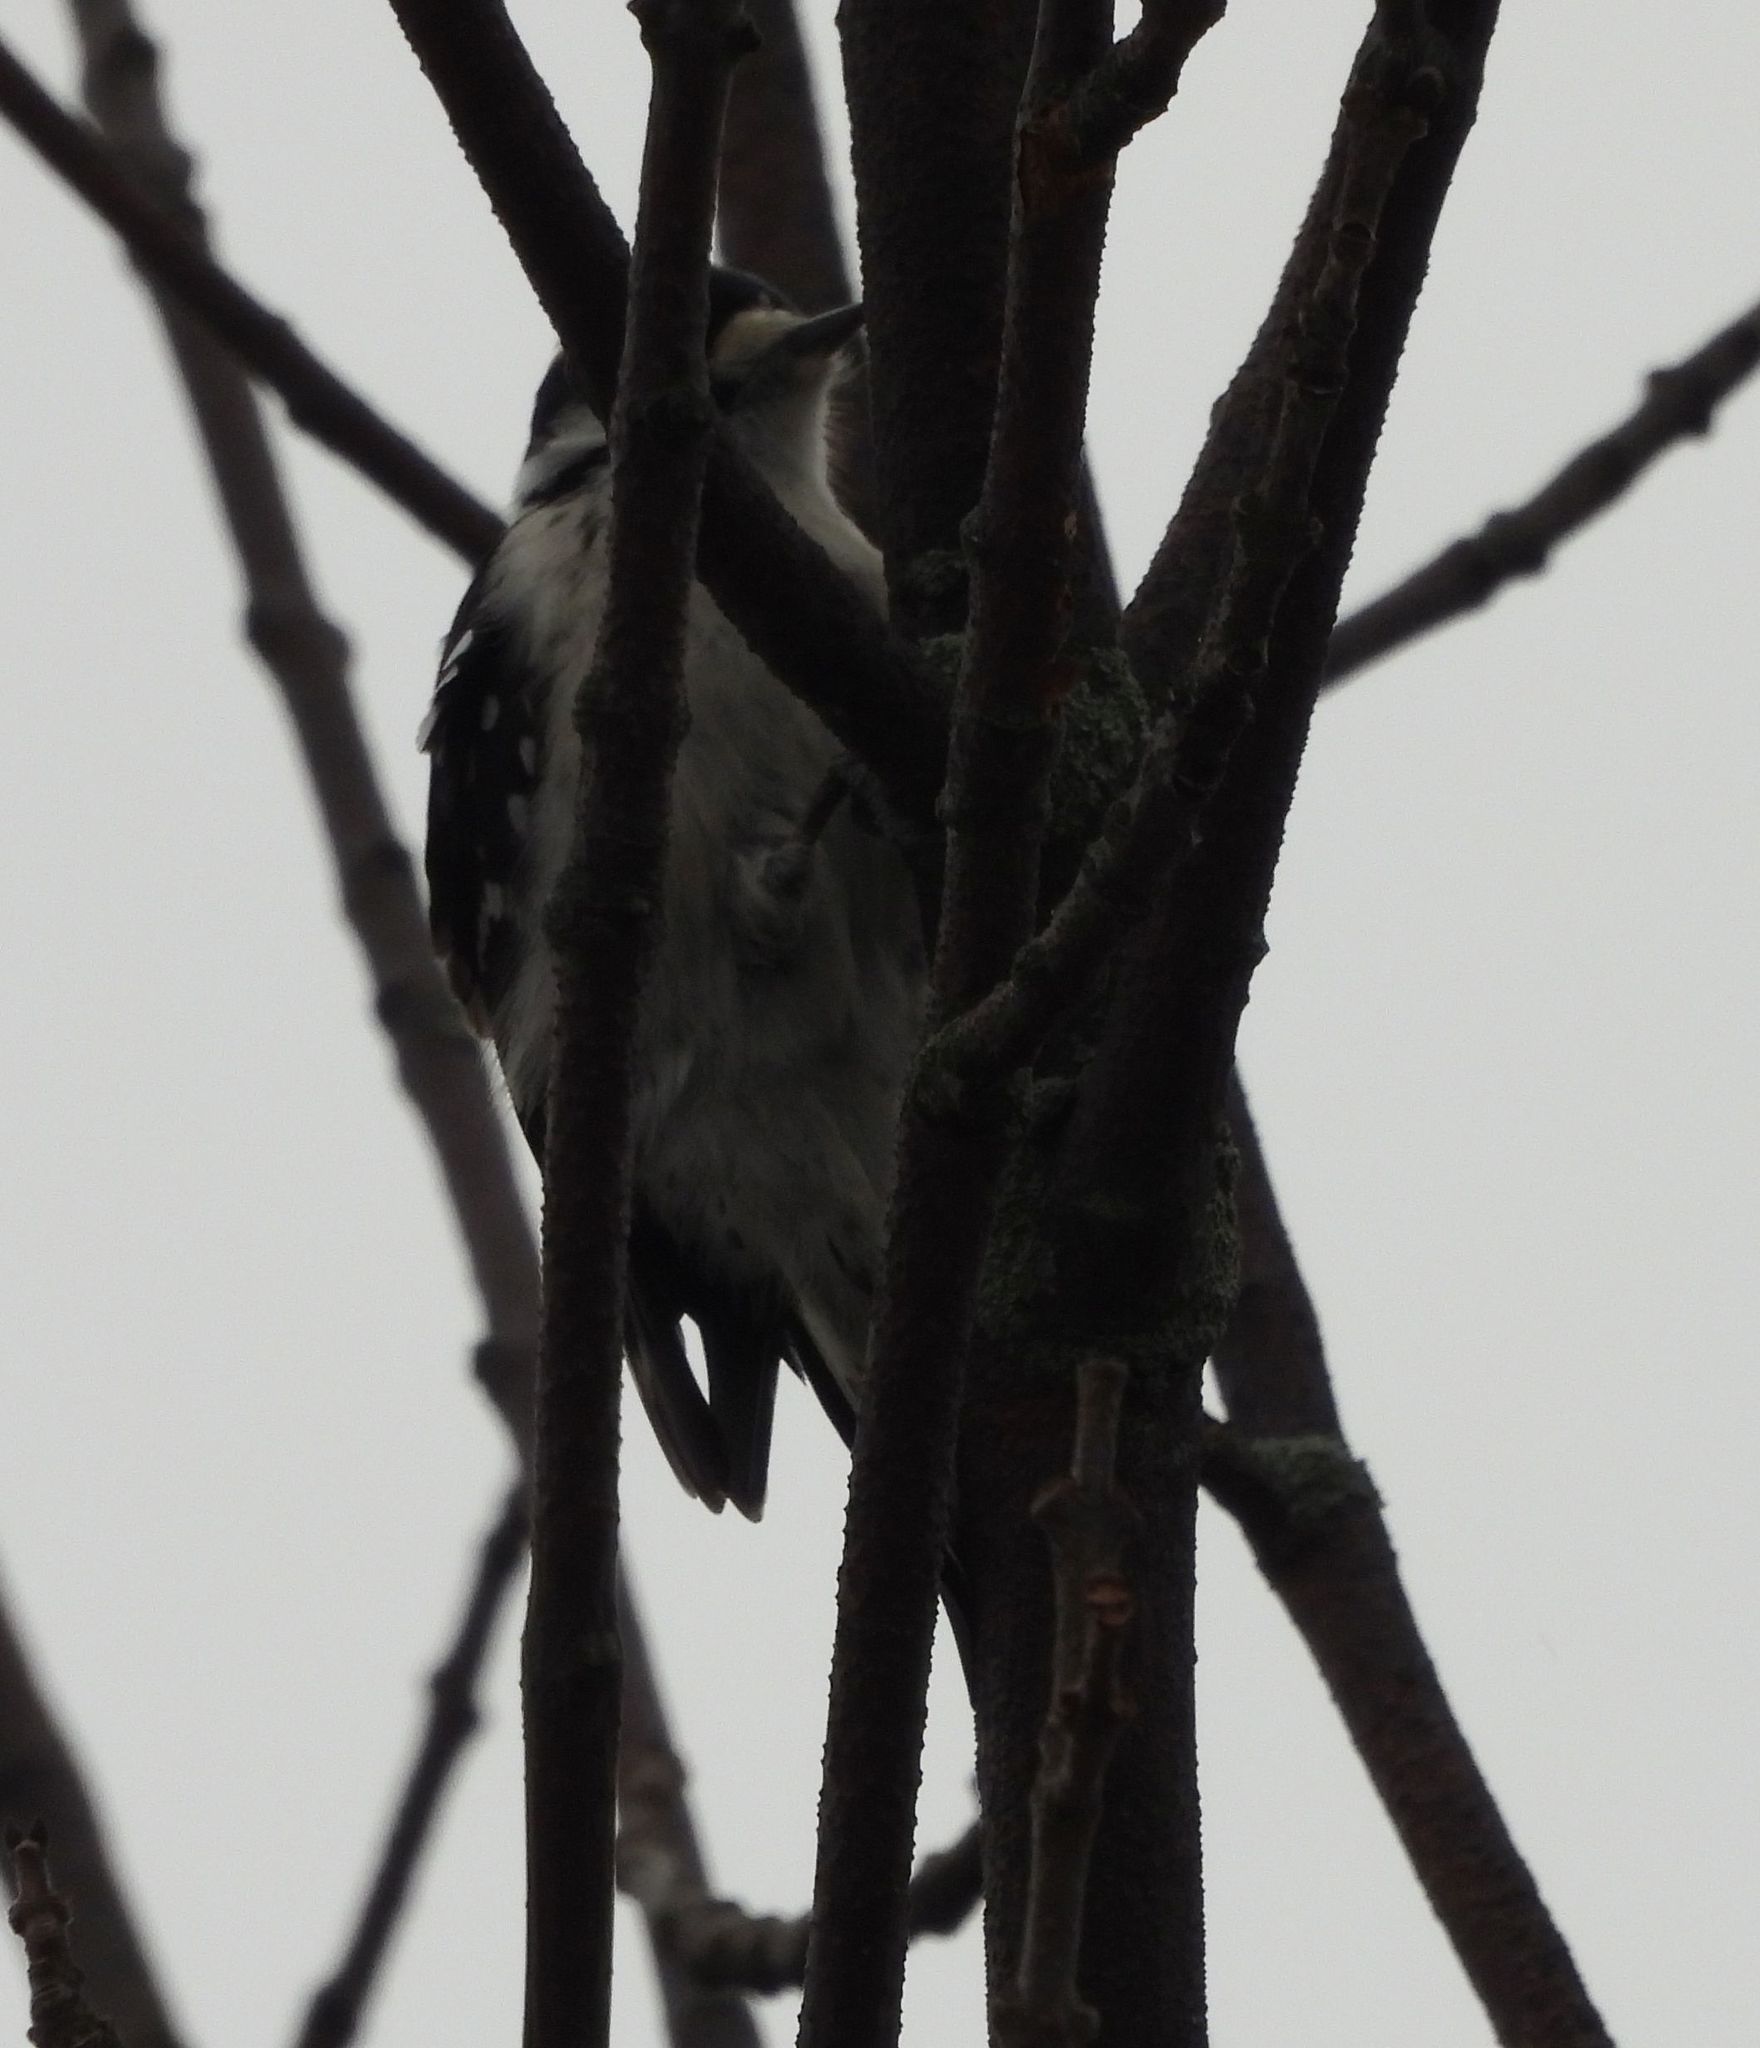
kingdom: Animalia
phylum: Chordata
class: Aves
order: Piciformes
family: Picidae
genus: Dryobates
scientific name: Dryobates pubescens
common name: Downy woodpecker
